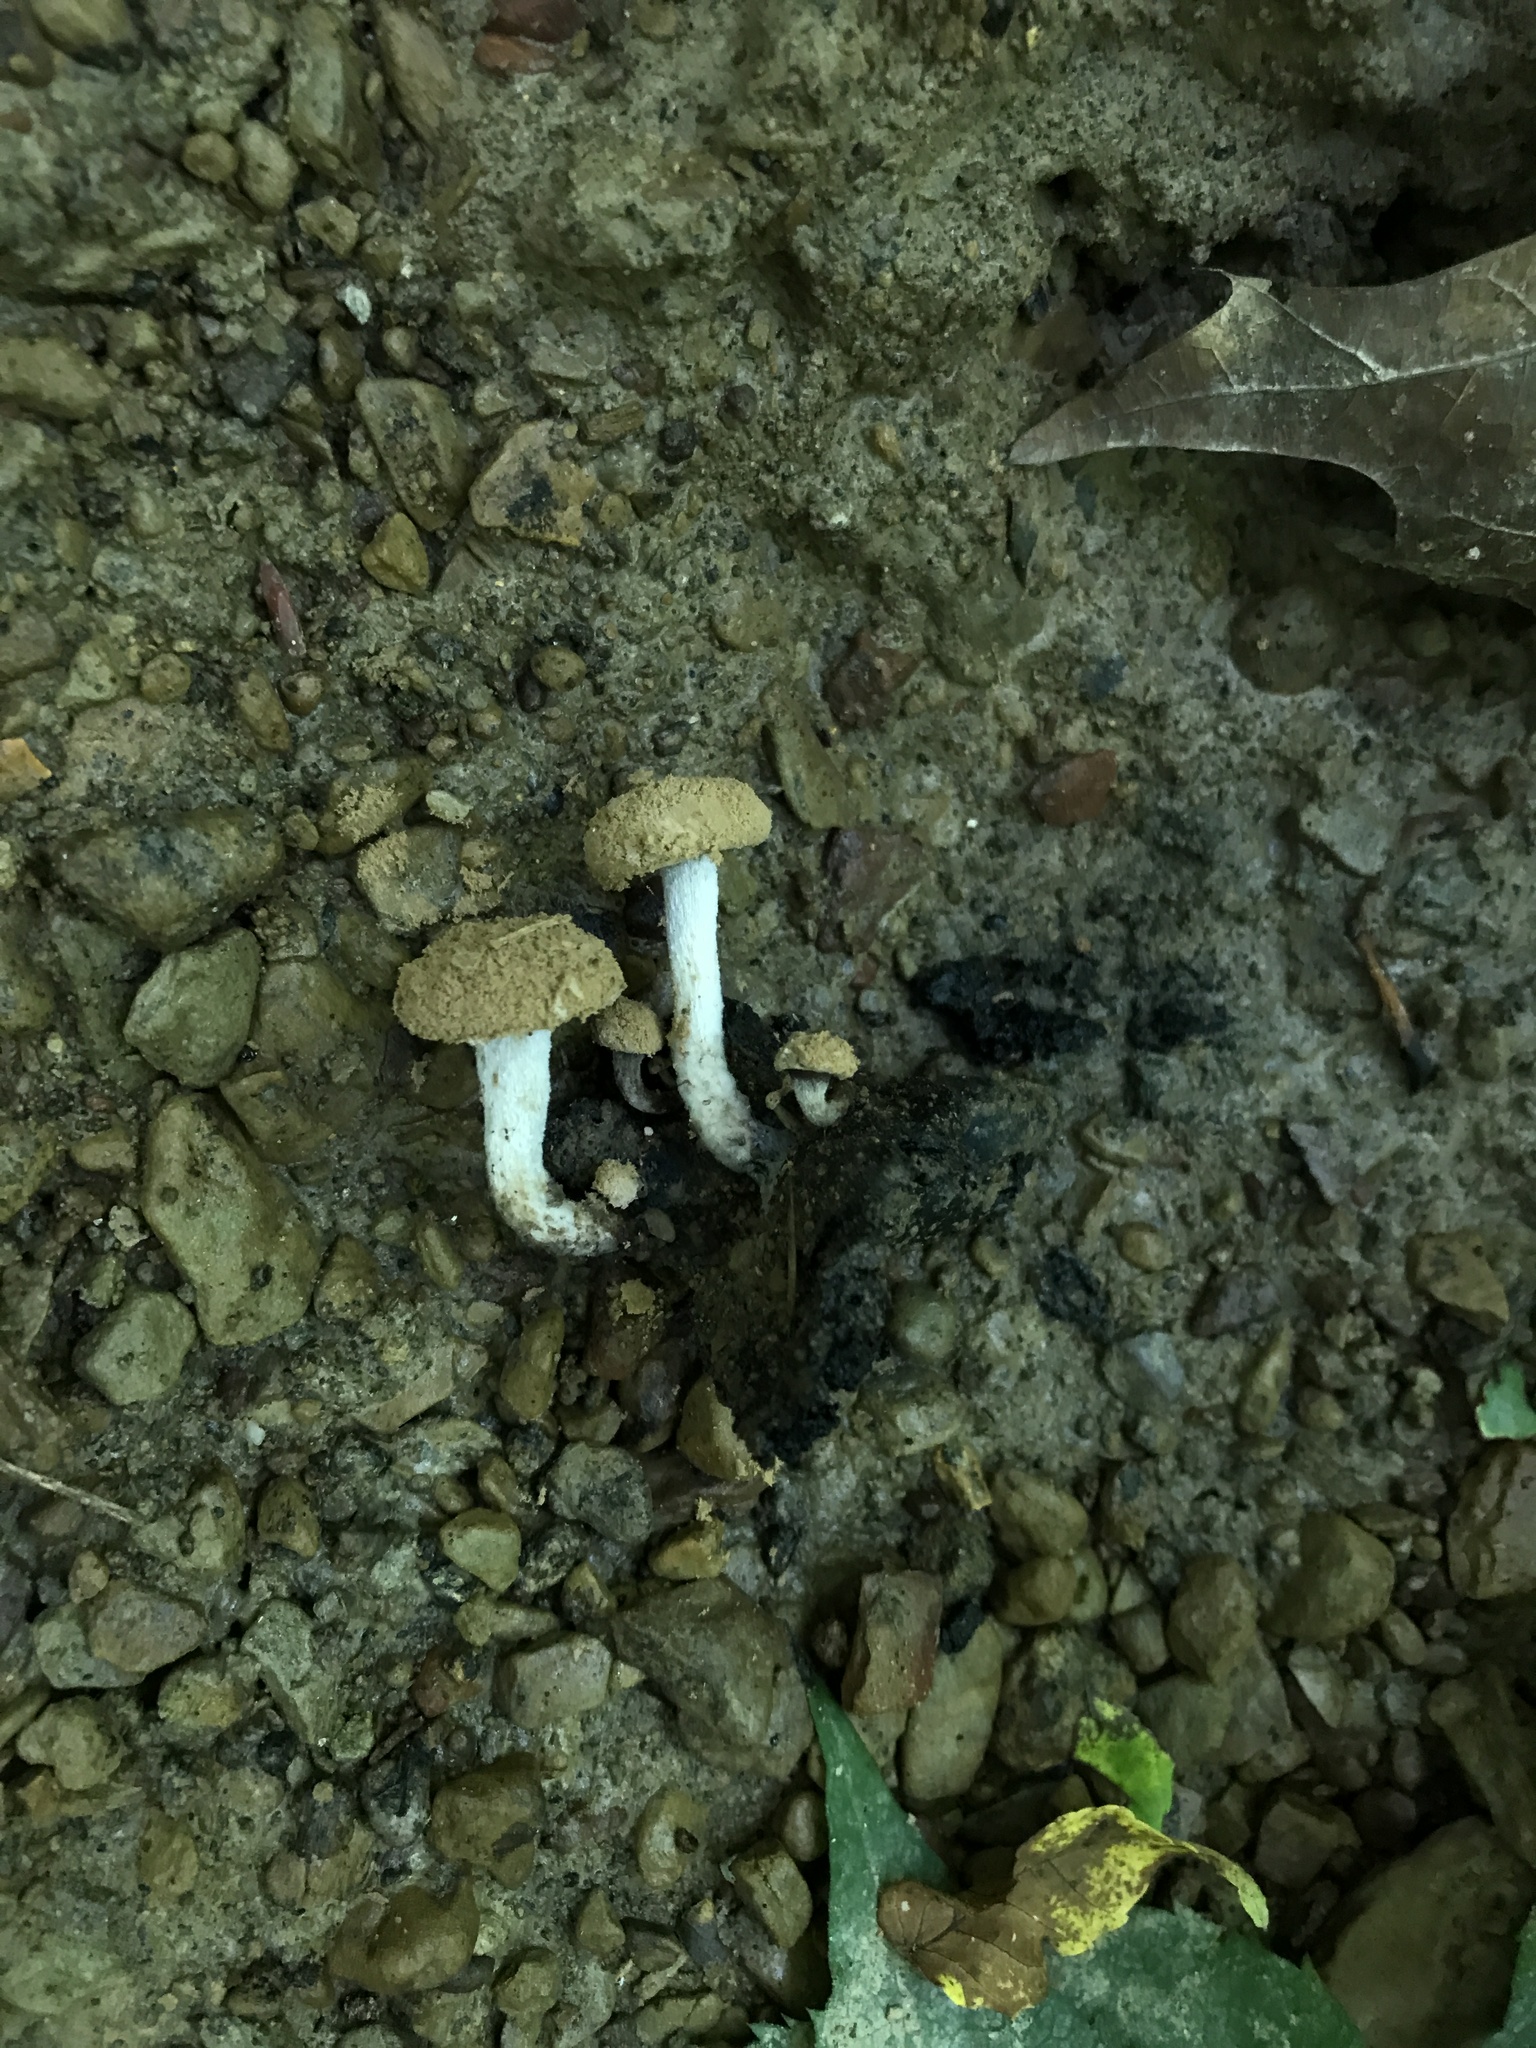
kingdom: Fungi
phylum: Basidiomycota
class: Agaricomycetes
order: Agaricales
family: Lyophyllaceae
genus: Asterophora
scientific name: Asterophora lycoperdoides
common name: Pick-a-back toadstool
